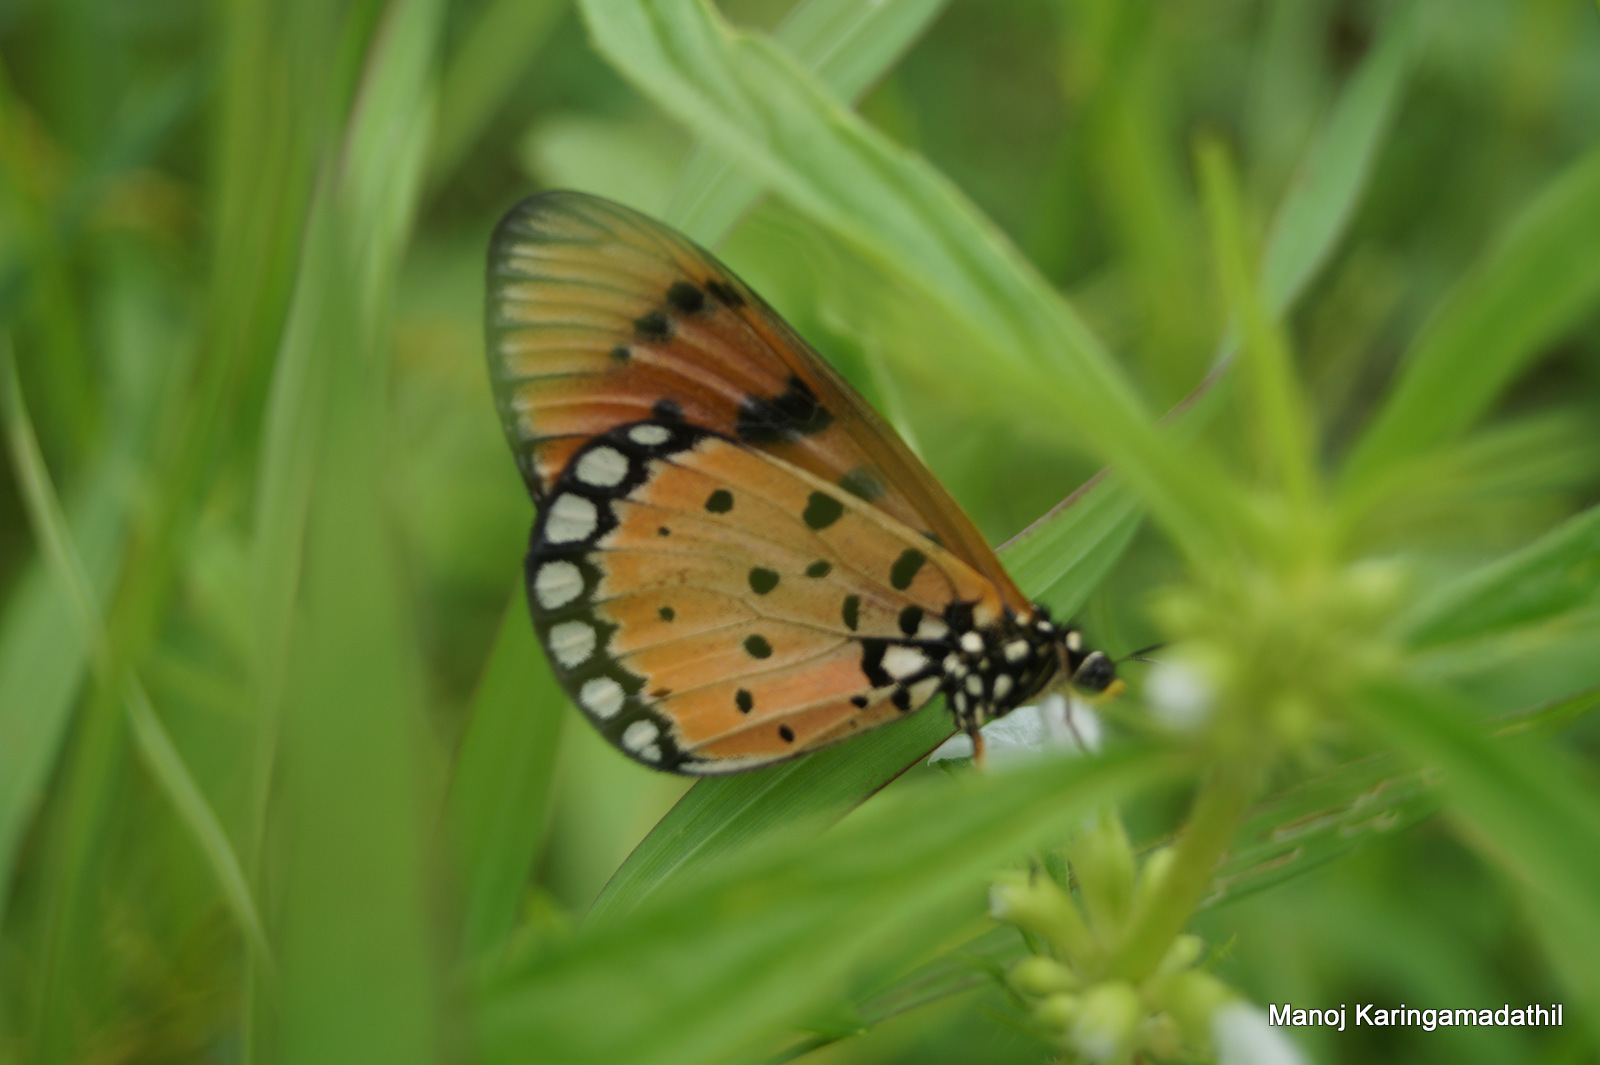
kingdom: Animalia
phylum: Arthropoda
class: Insecta
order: Lepidoptera
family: Nymphalidae
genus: Acraea
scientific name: Acraea terpsicore
